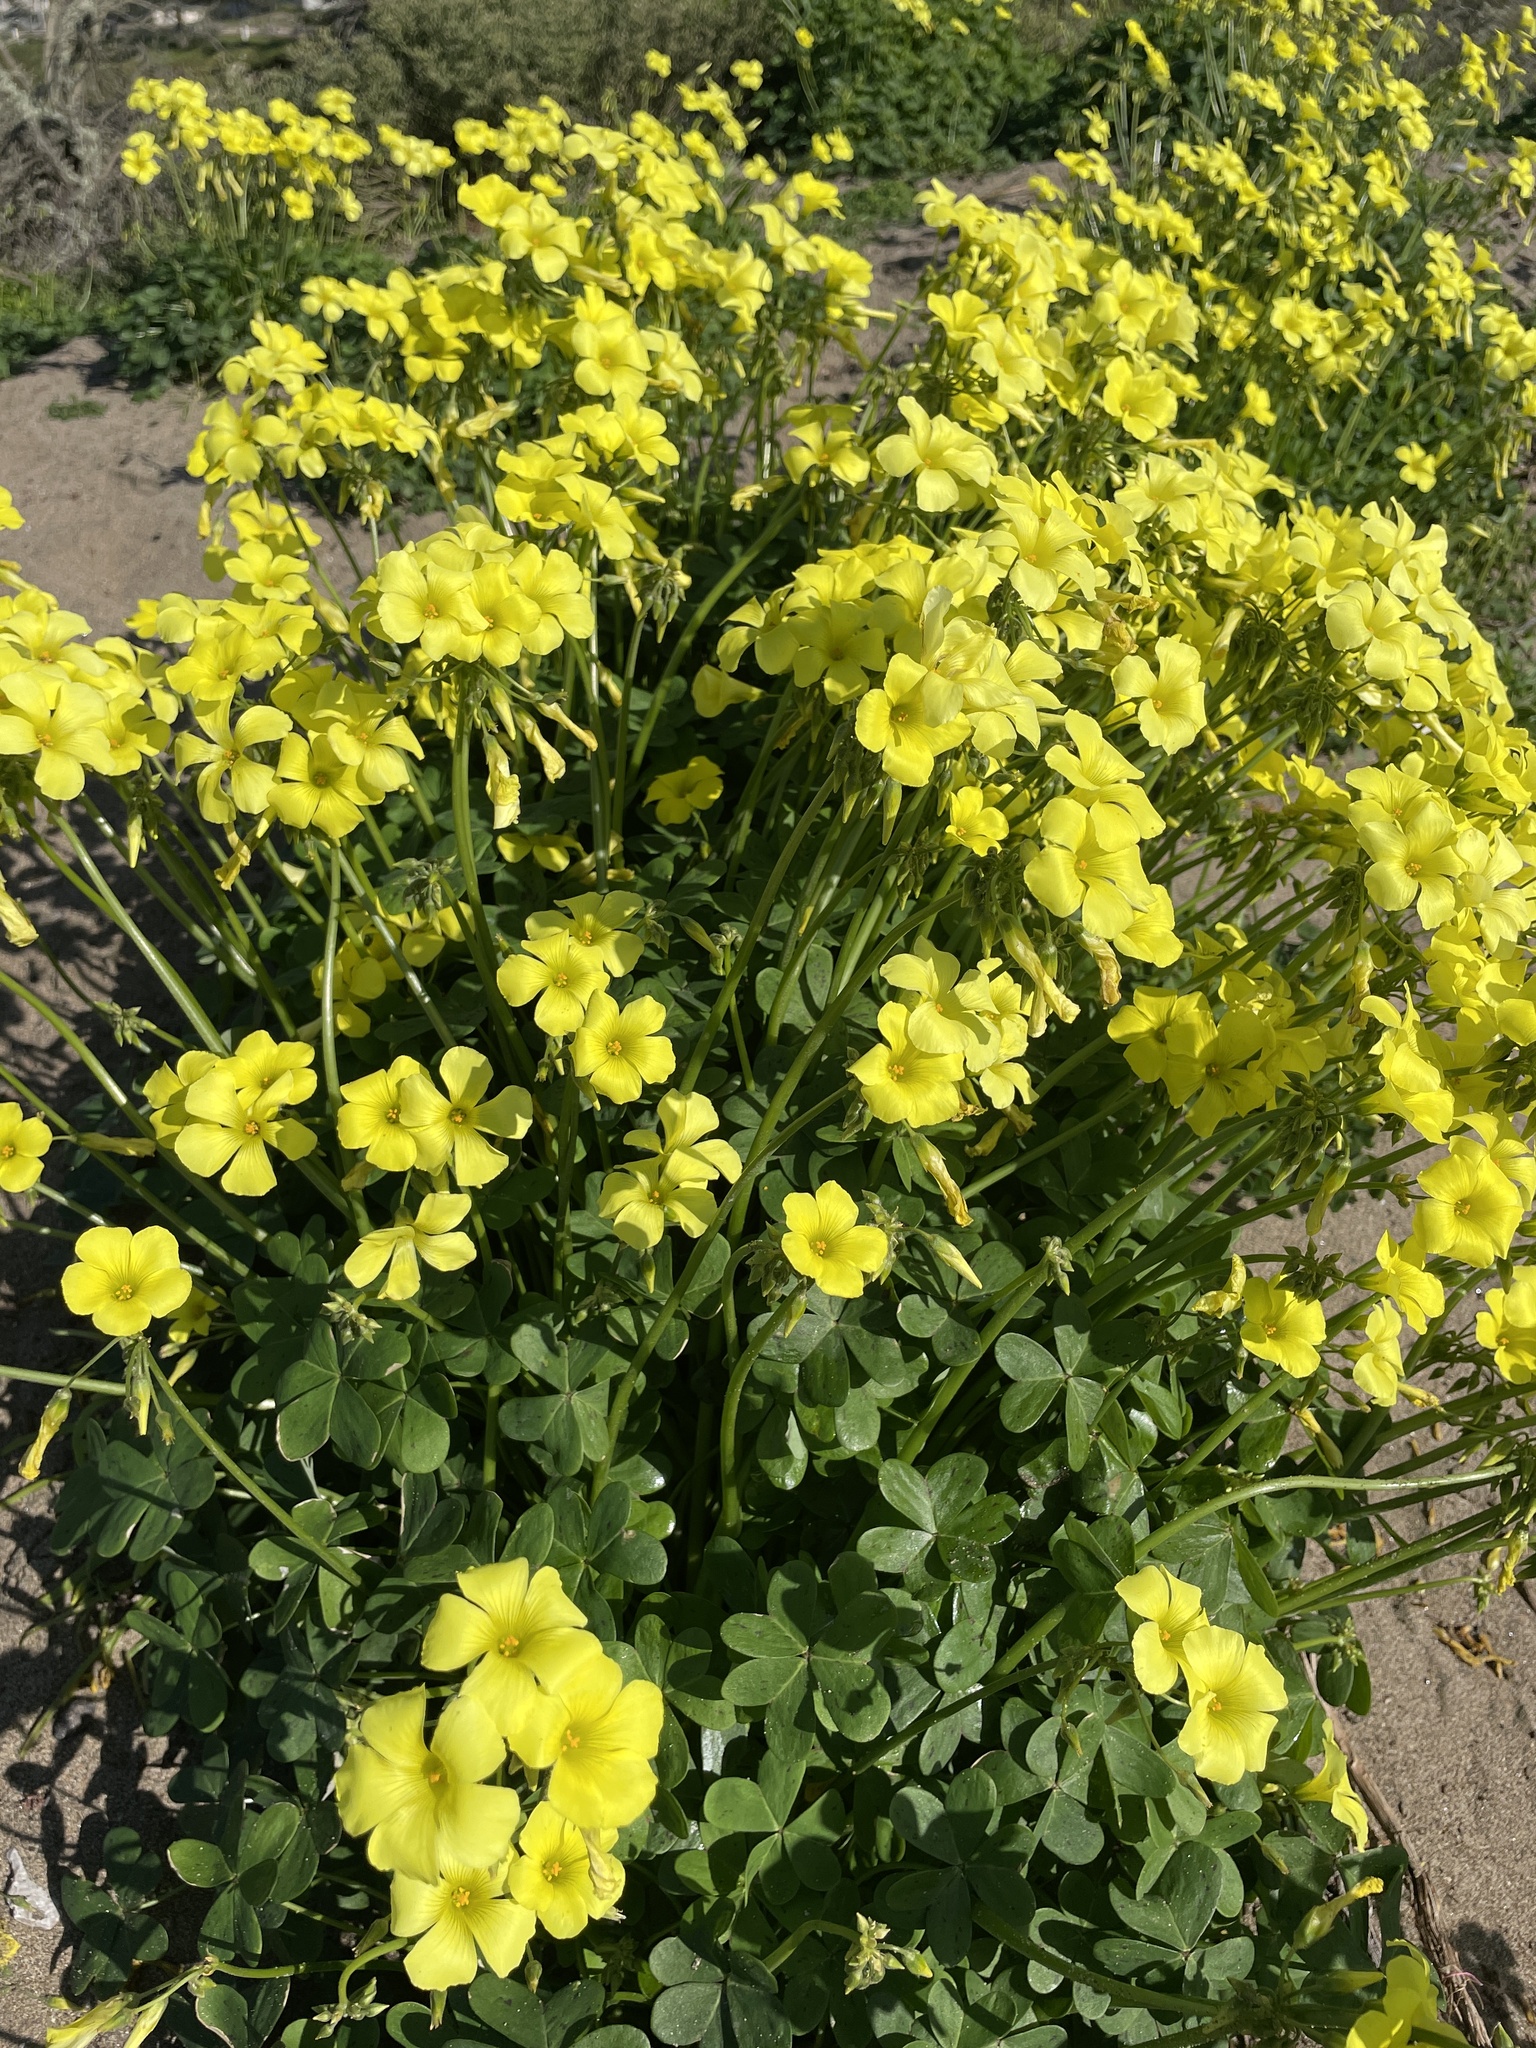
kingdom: Plantae
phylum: Tracheophyta
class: Magnoliopsida
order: Oxalidales
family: Oxalidaceae
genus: Oxalis
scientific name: Oxalis pes-caprae
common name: Bermuda-buttercup
